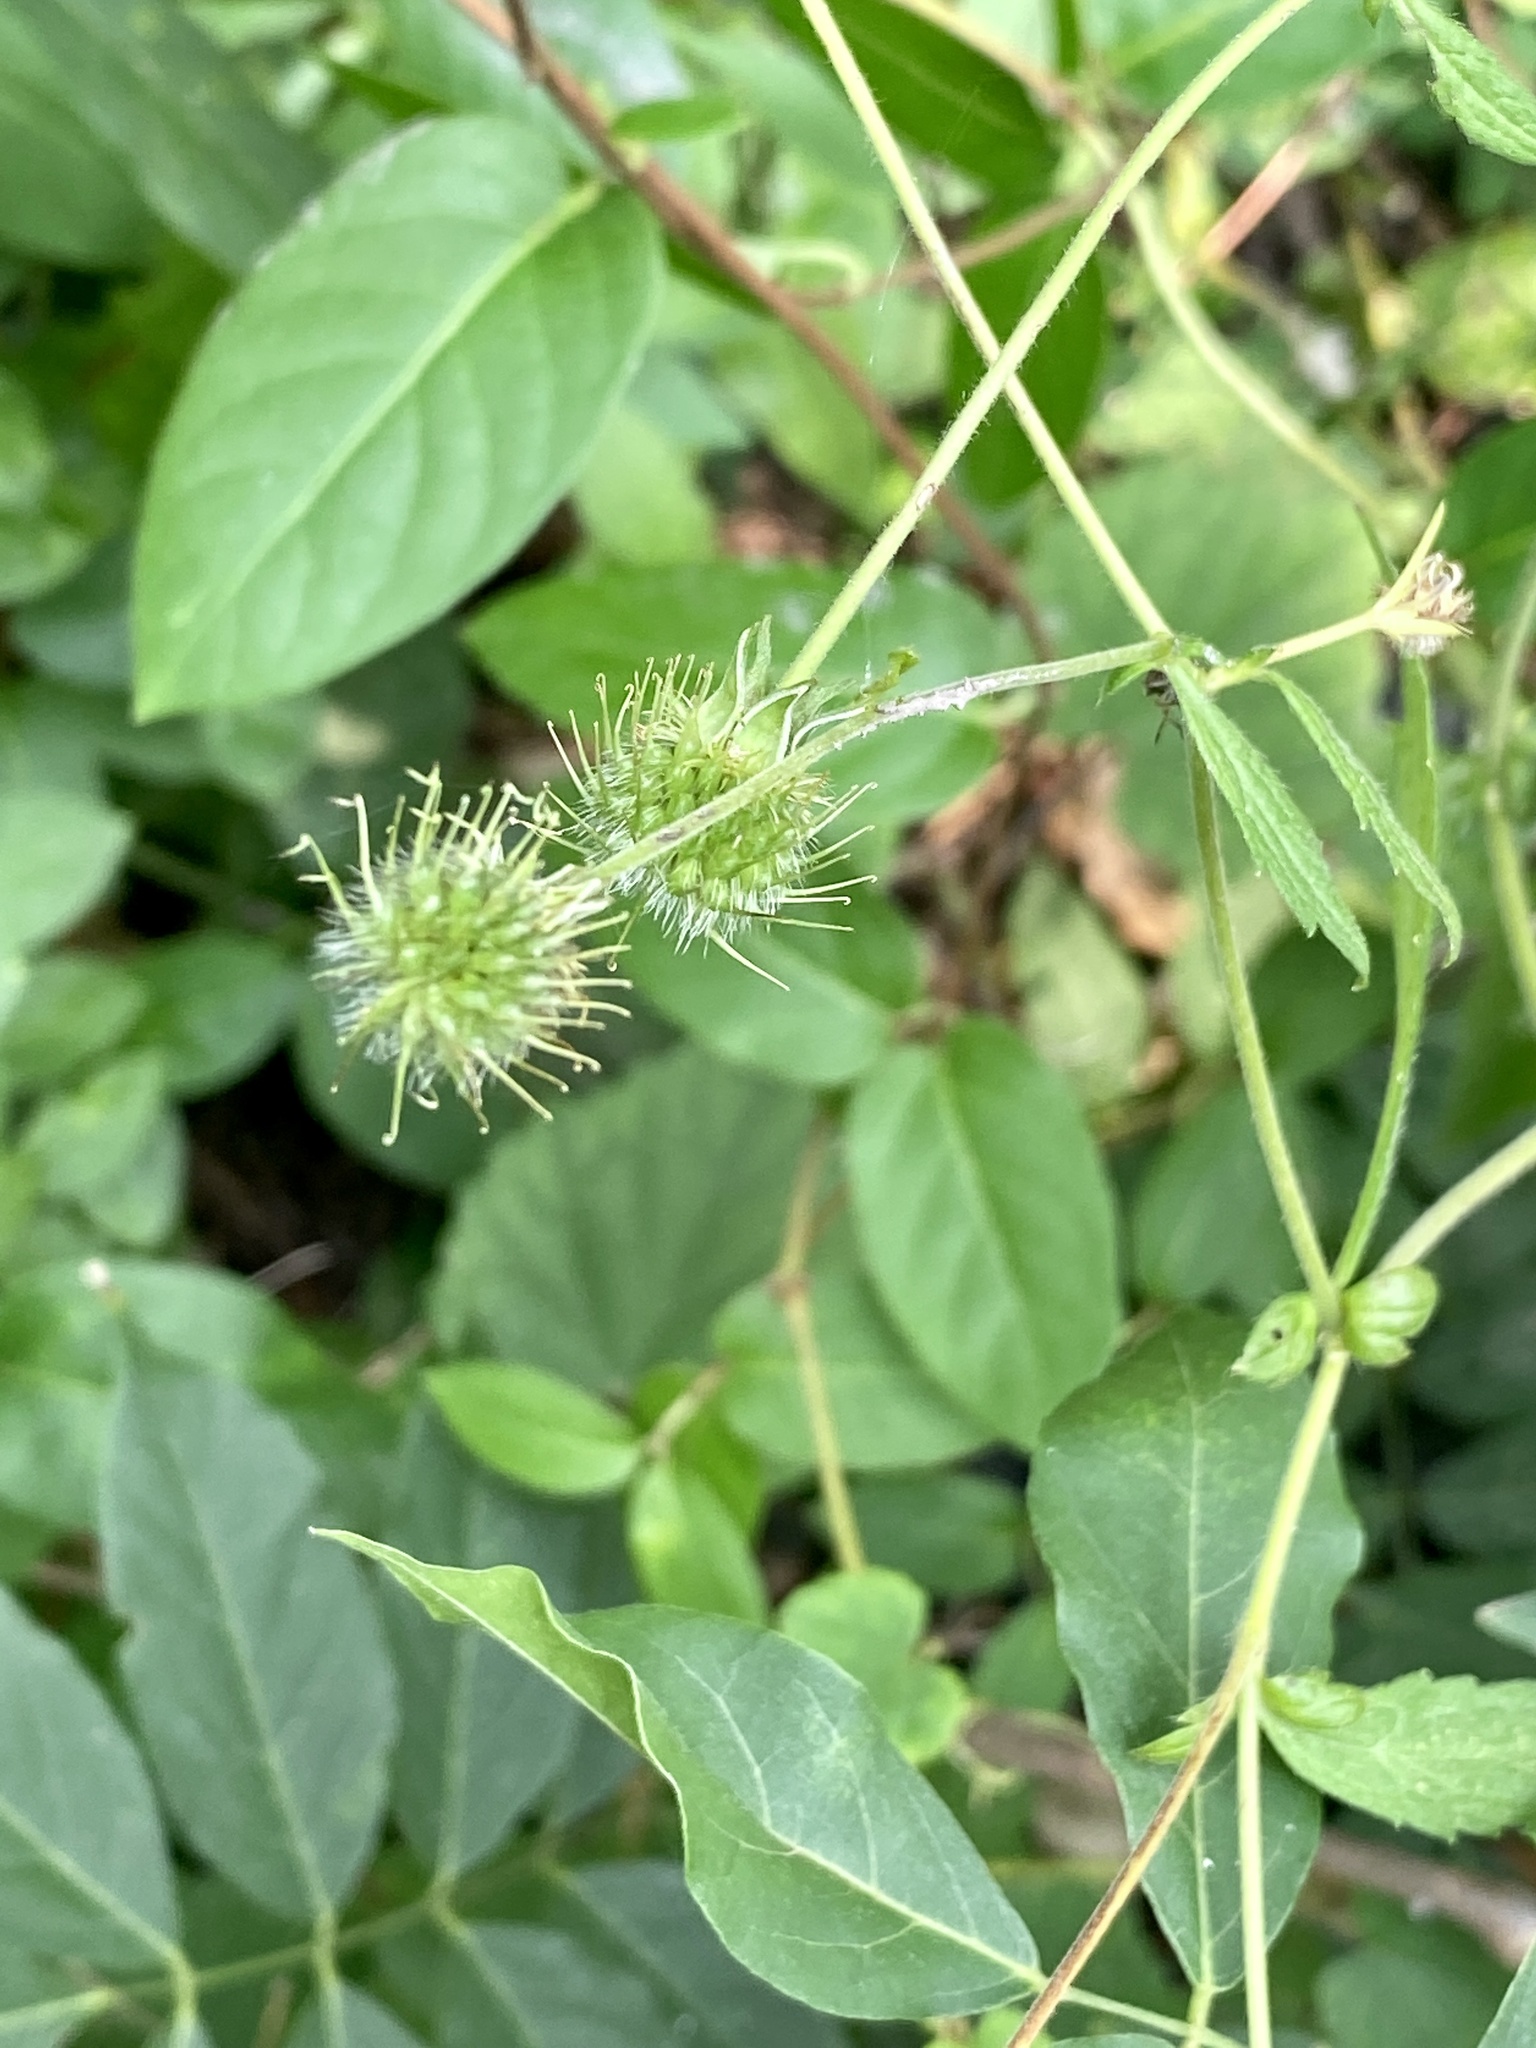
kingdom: Plantae
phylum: Tracheophyta
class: Magnoliopsida
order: Rosales
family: Rosaceae
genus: Geum
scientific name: Geum canadense
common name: White avens
